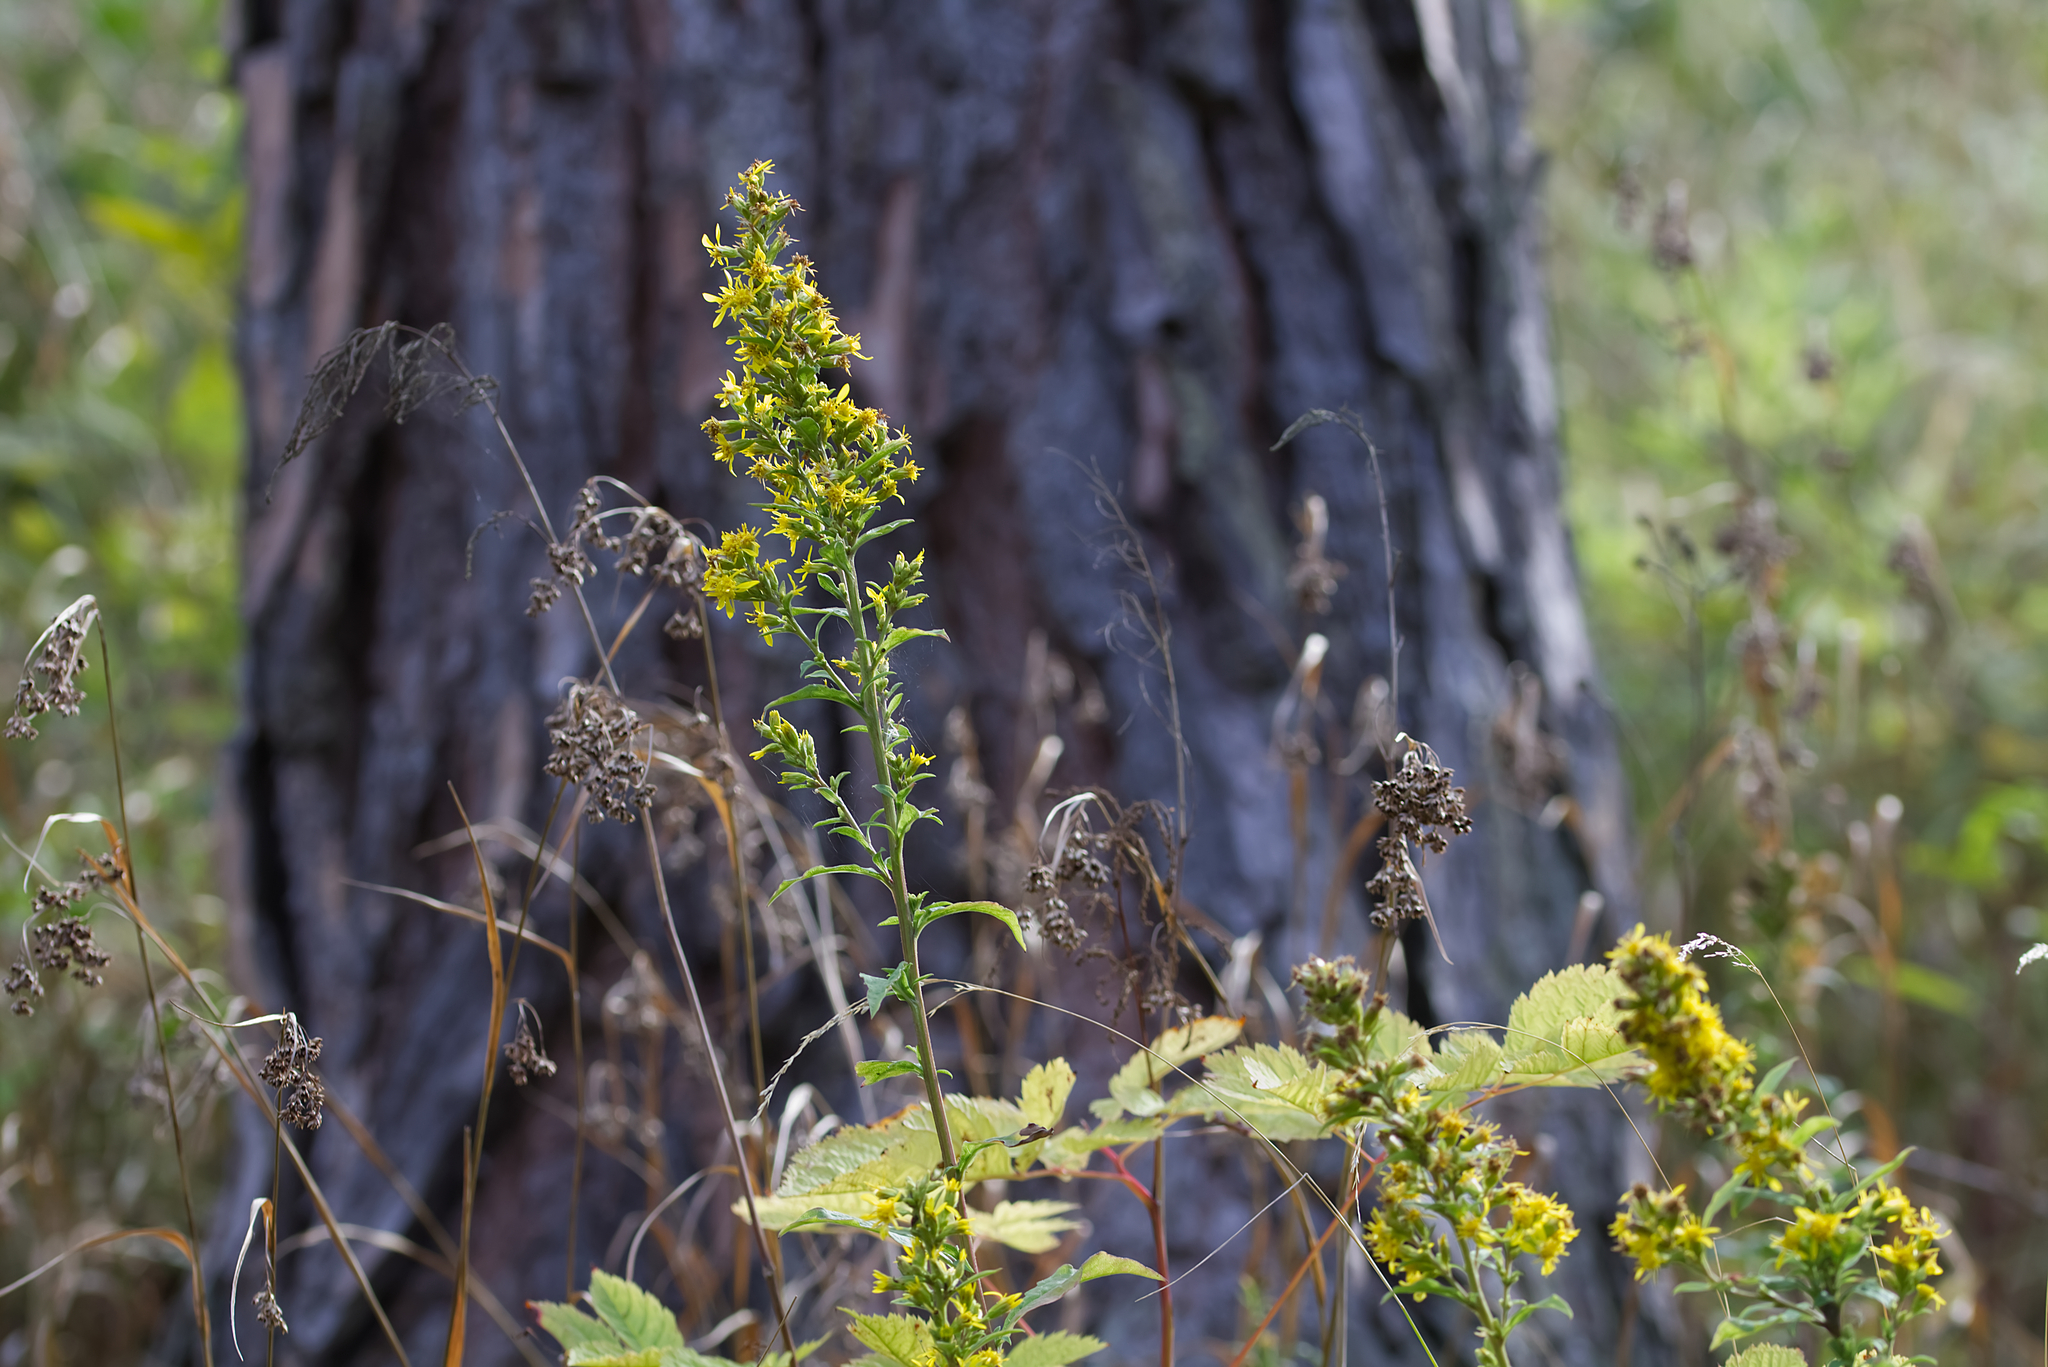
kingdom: Plantae
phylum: Tracheophyta
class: Magnoliopsida
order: Asterales
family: Asteraceae
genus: Solidago
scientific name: Solidago virgaurea
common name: Goldenrod
